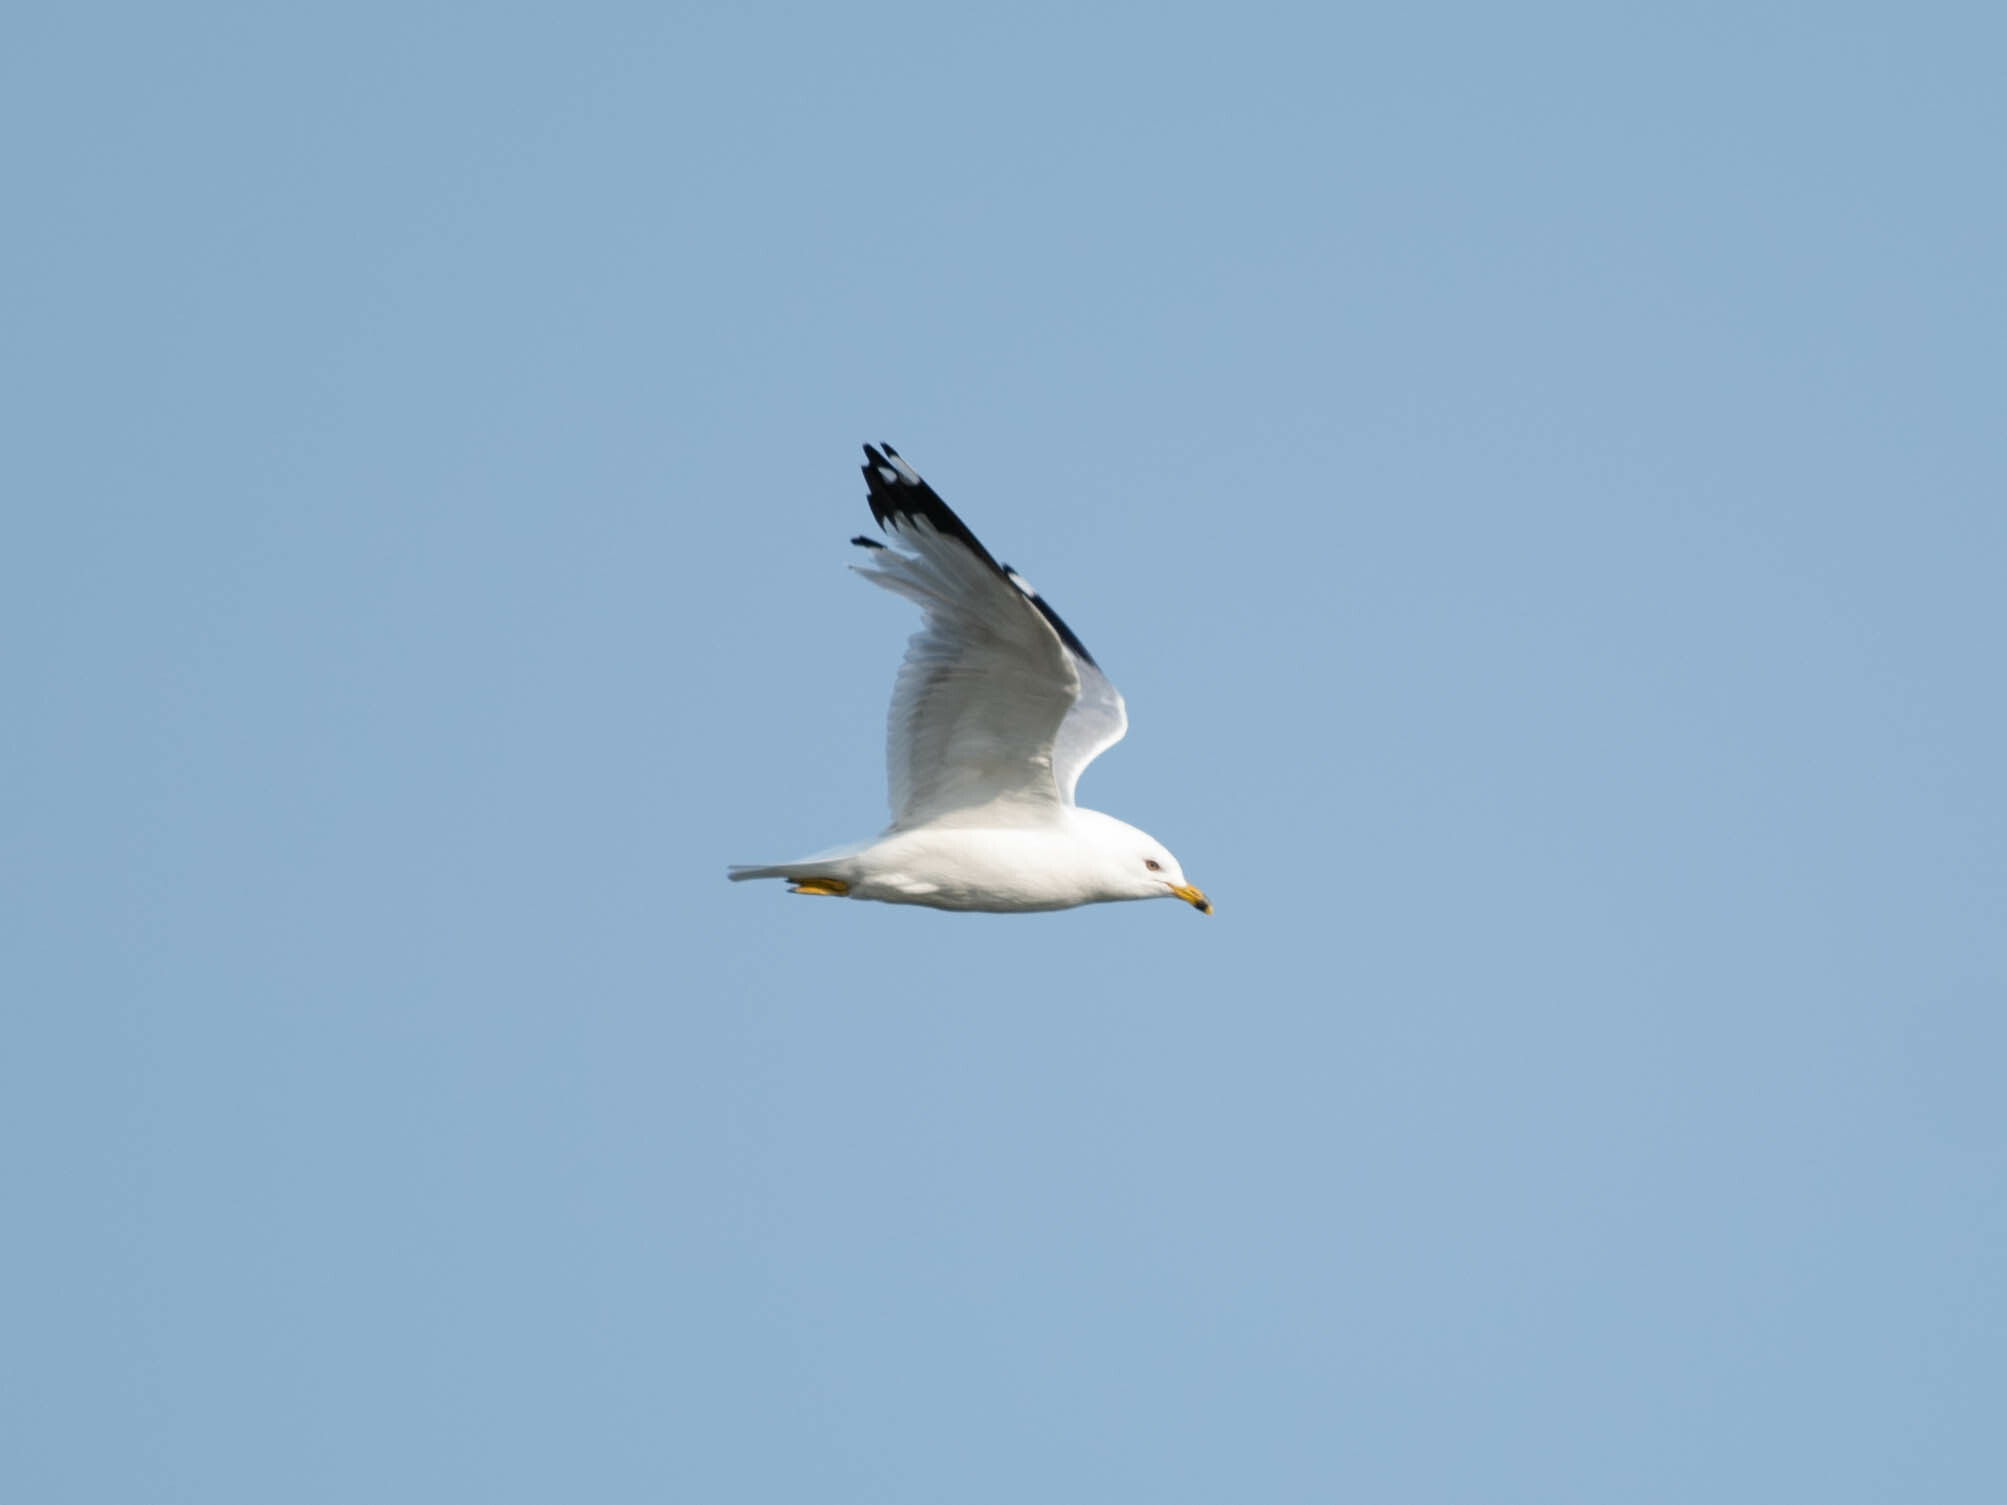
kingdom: Animalia
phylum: Chordata
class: Aves
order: Charadriiformes
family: Laridae
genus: Larus
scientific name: Larus delawarensis
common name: Ring-billed gull
